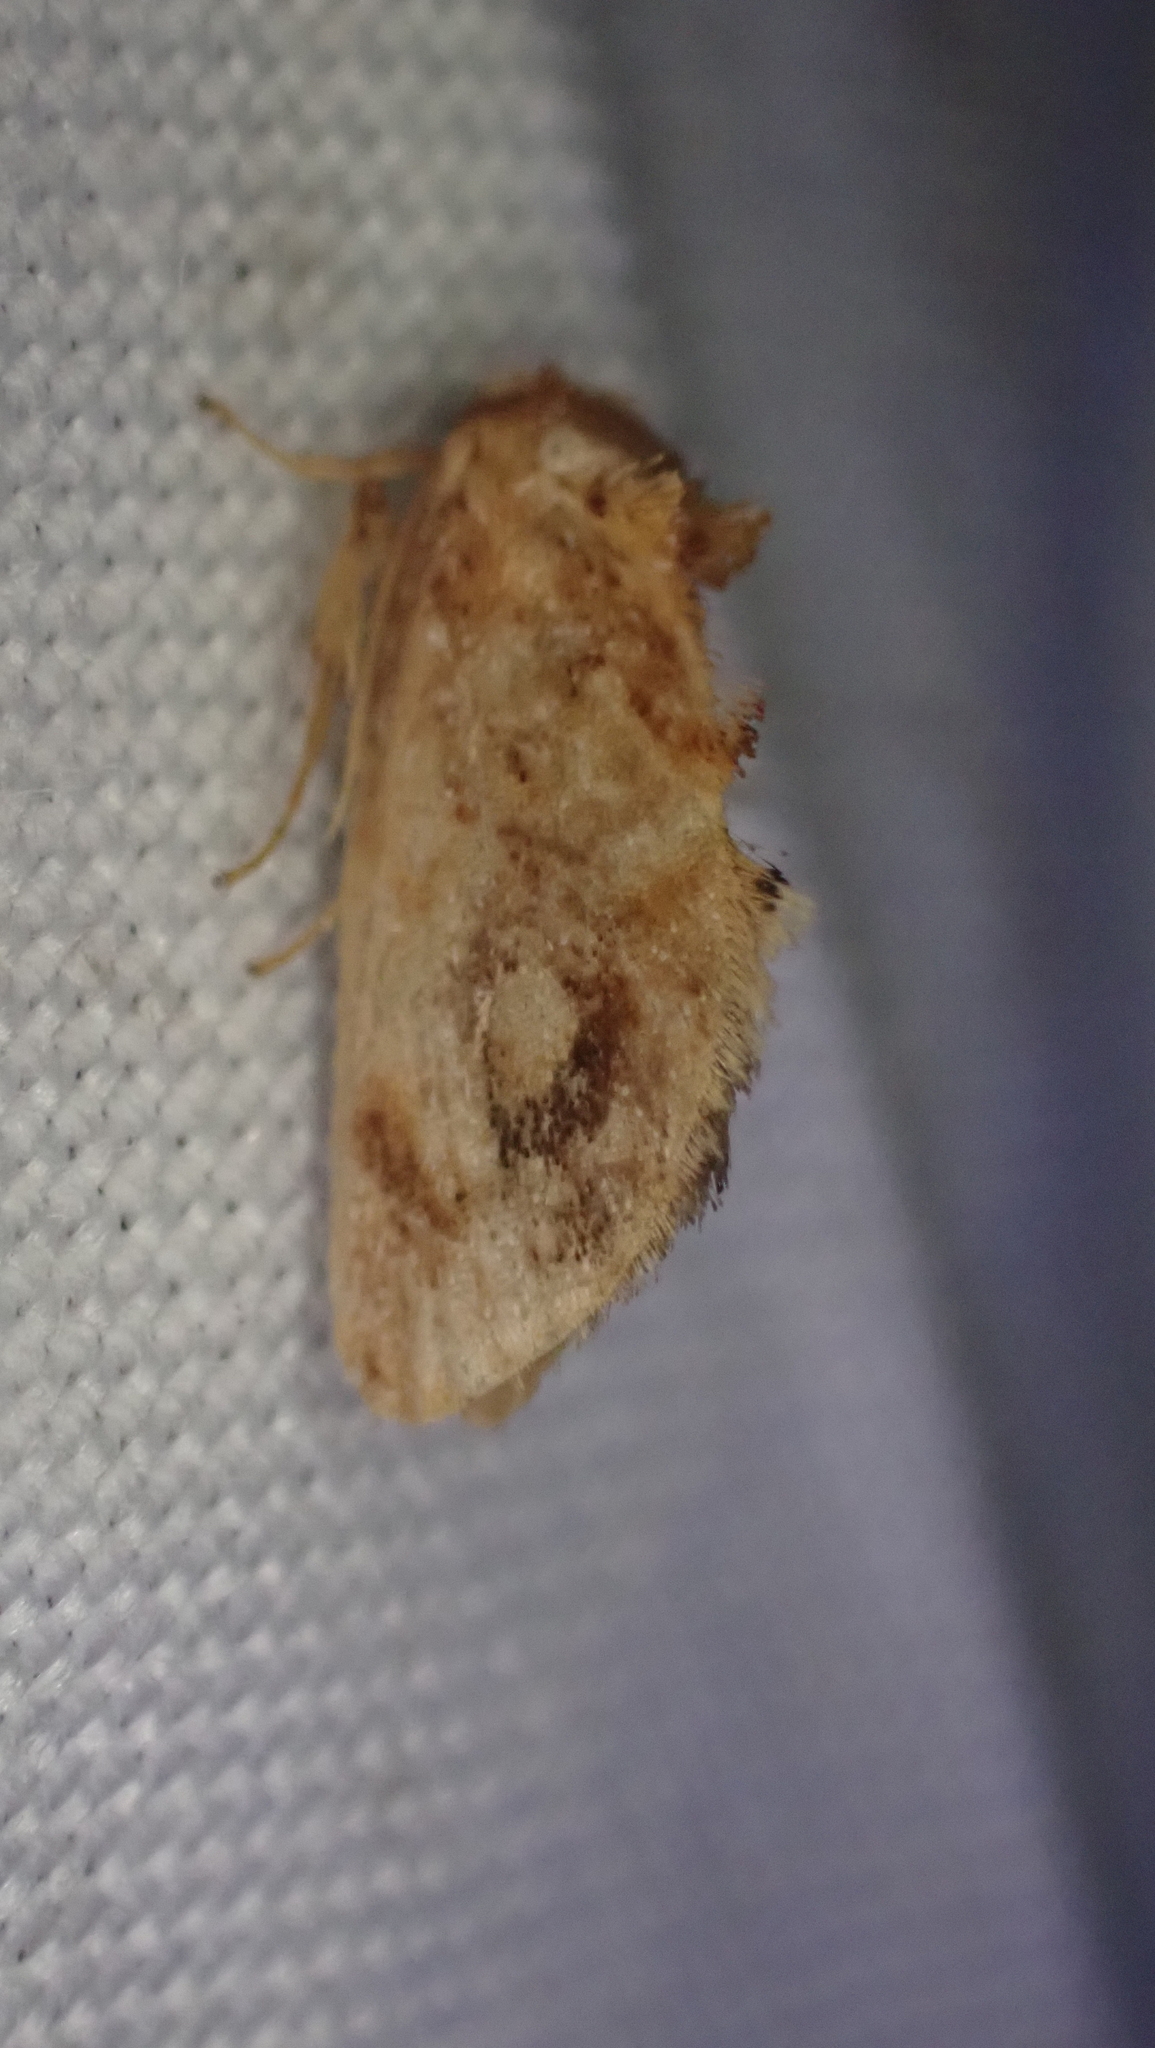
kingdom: Animalia
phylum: Arthropoda
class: Insecta
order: Lepidoptera
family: Limacodidae
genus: Isochaetes
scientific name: Isochaetes beutenmuelleri
